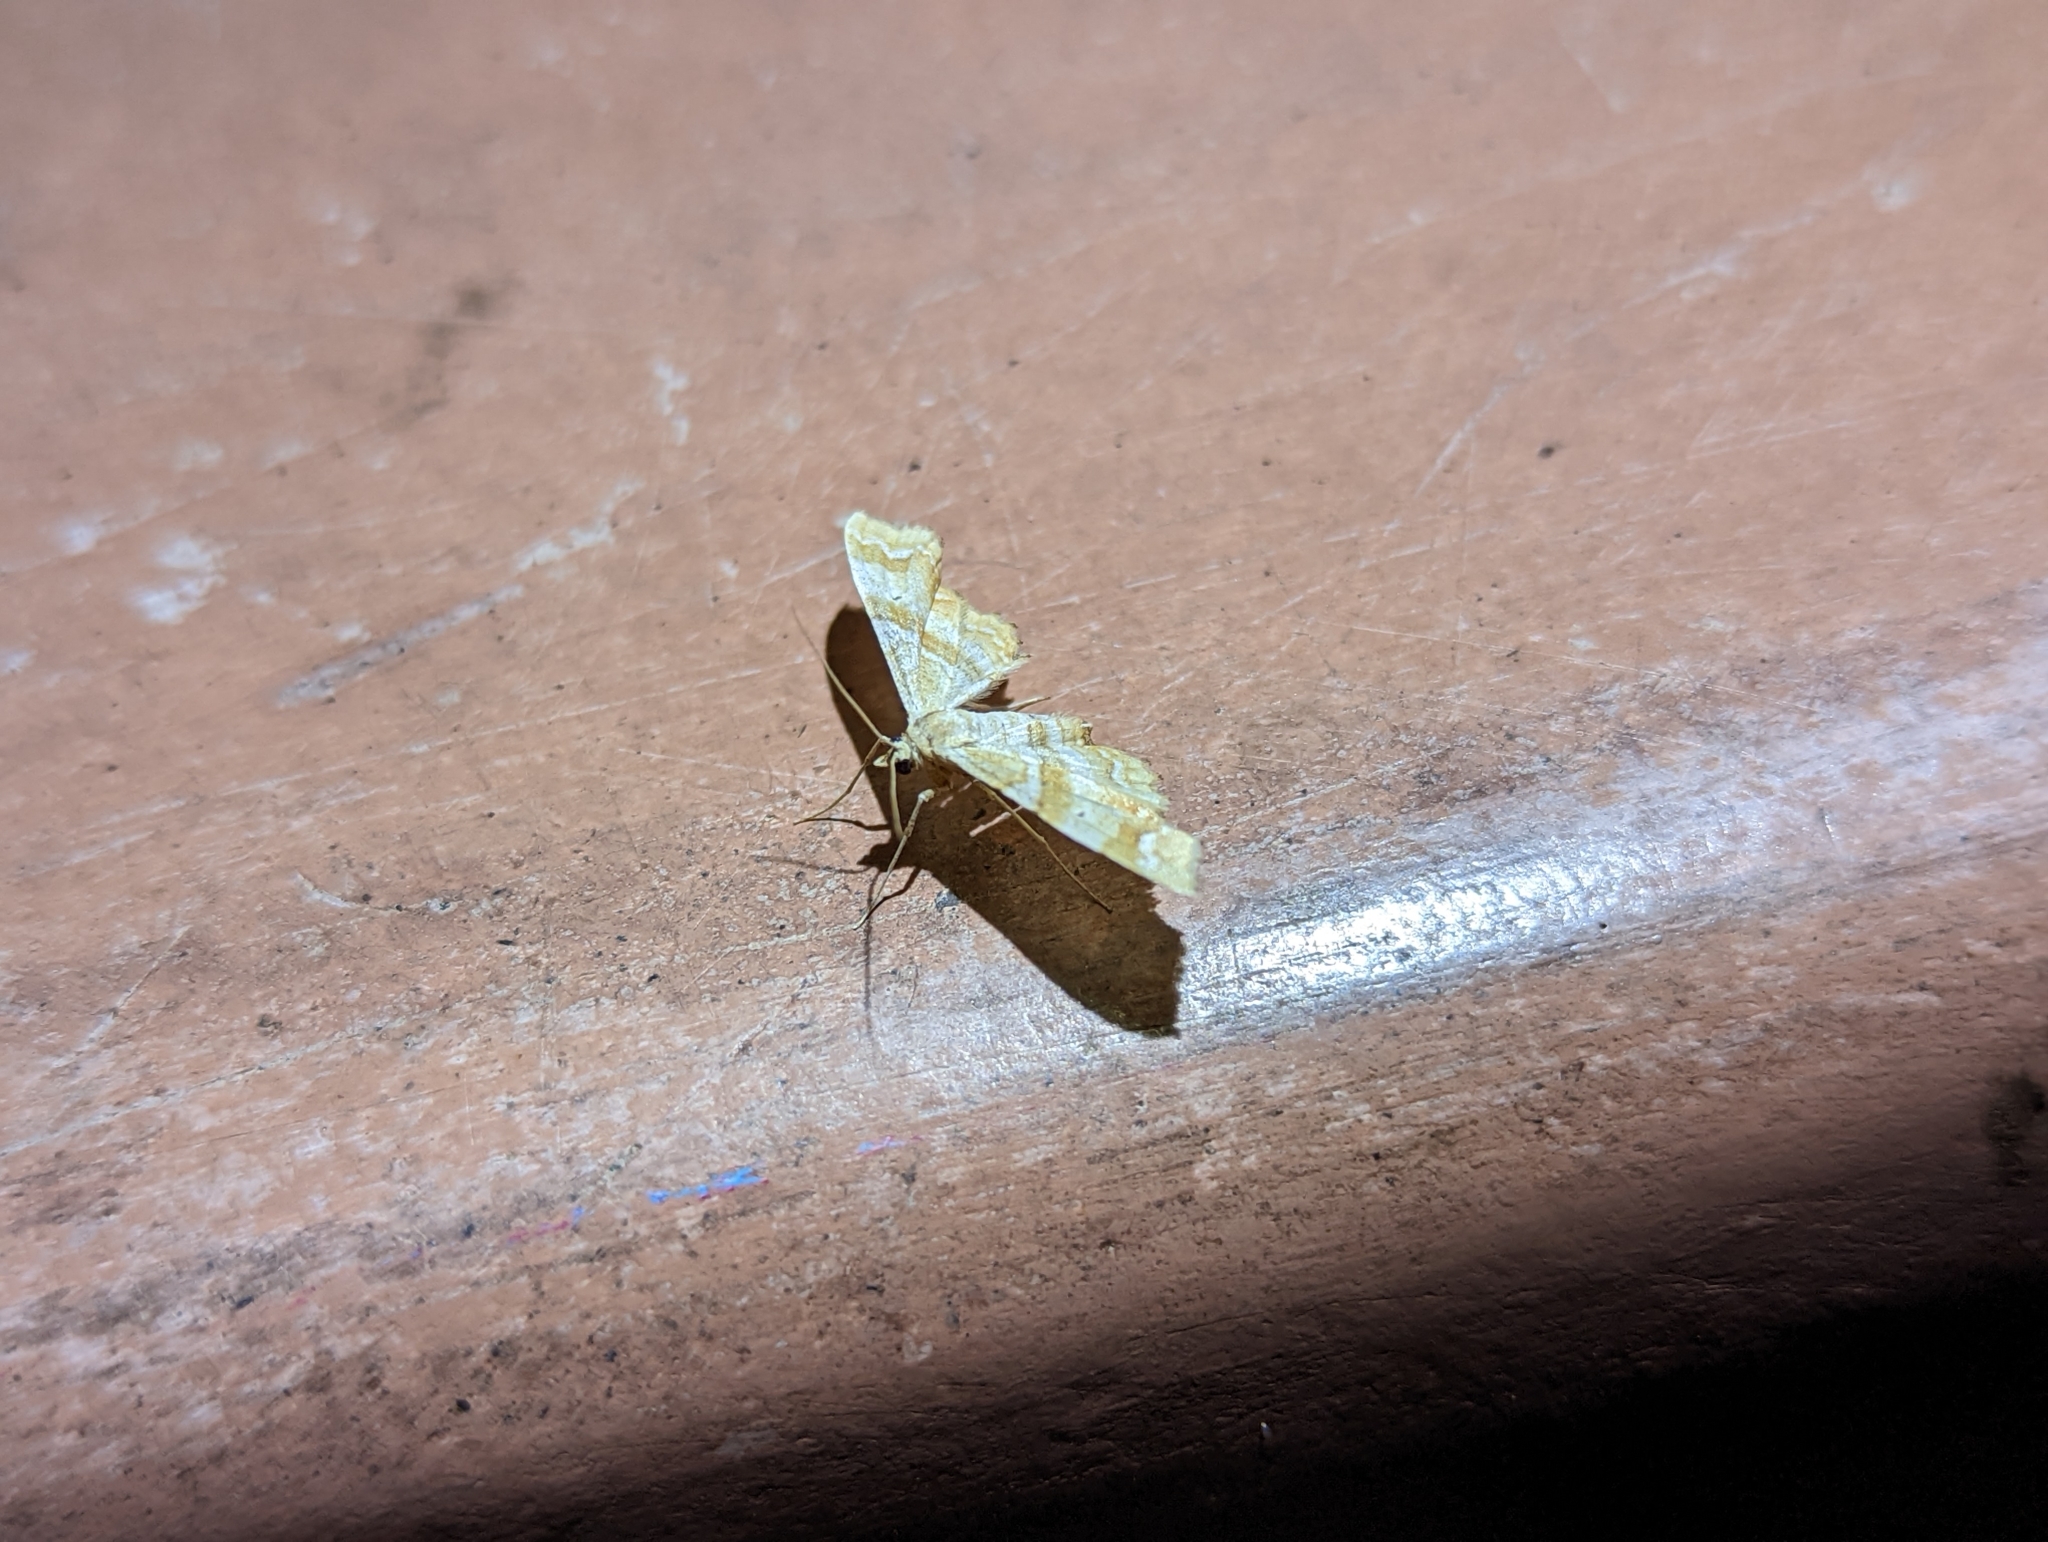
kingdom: Animalia
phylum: Arthropoda
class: Insecta
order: Lepidoptera
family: Geometridae
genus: Odontoptila
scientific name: Odontoptila obrimo
